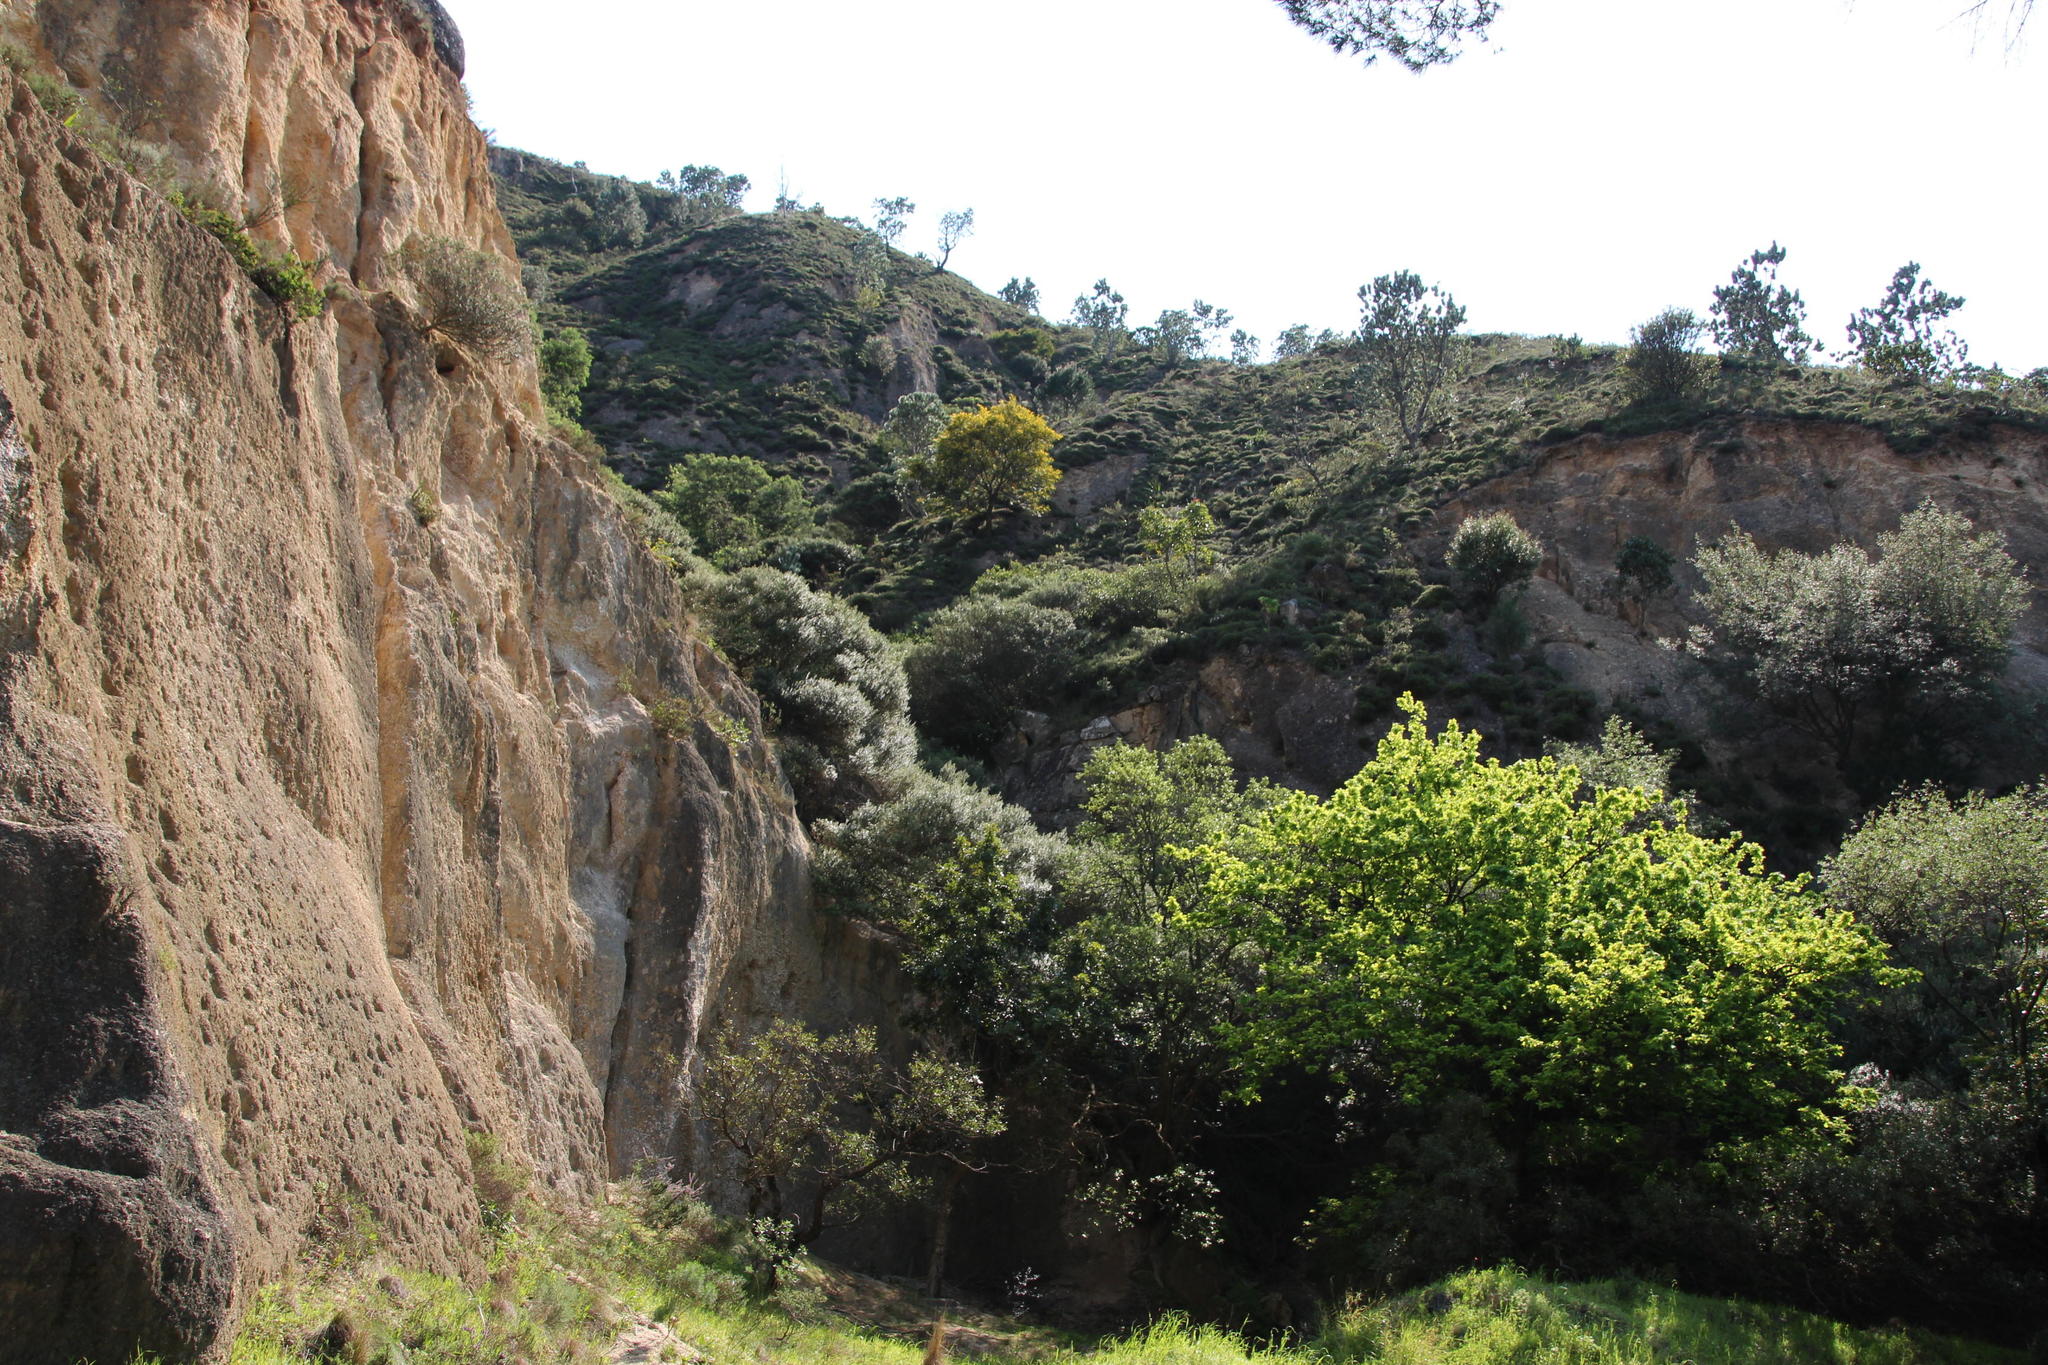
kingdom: Plantae
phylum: Tracheophyta
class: Magnoliopsida
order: Fabales
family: Fabaceae
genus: Acacia
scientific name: Acacia saligna
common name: Orange wattle
